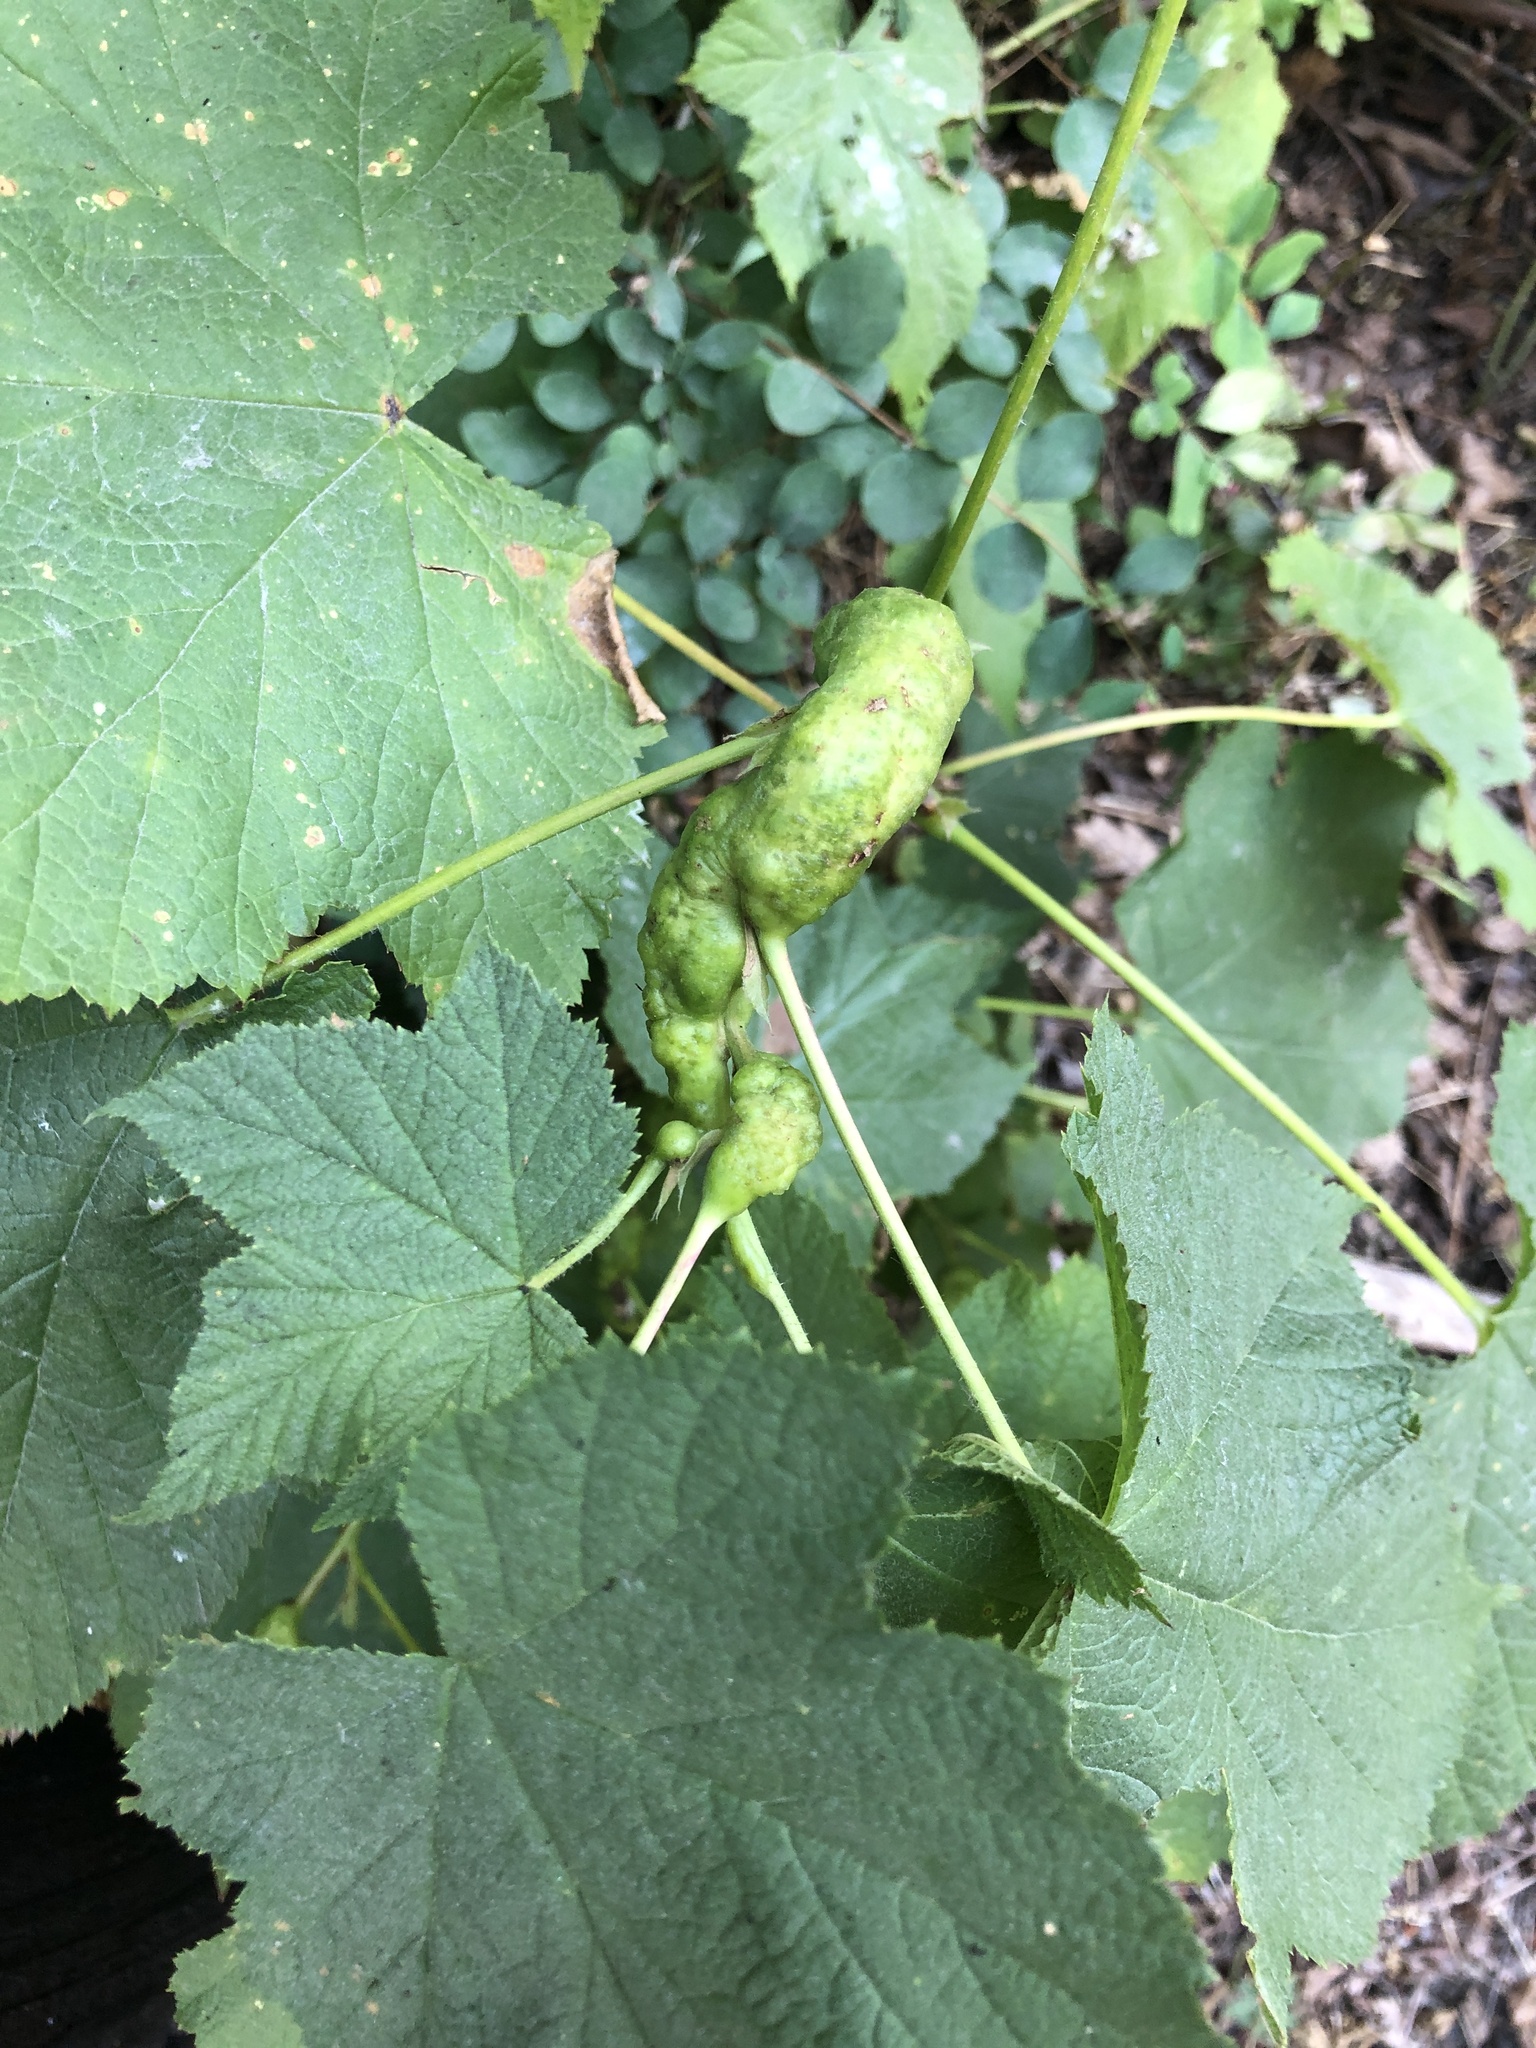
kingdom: Animalia
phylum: Arthropoda
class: Insecta
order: Hymenoptera
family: Cynipidae
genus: Diastrophus
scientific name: Diastrophus
